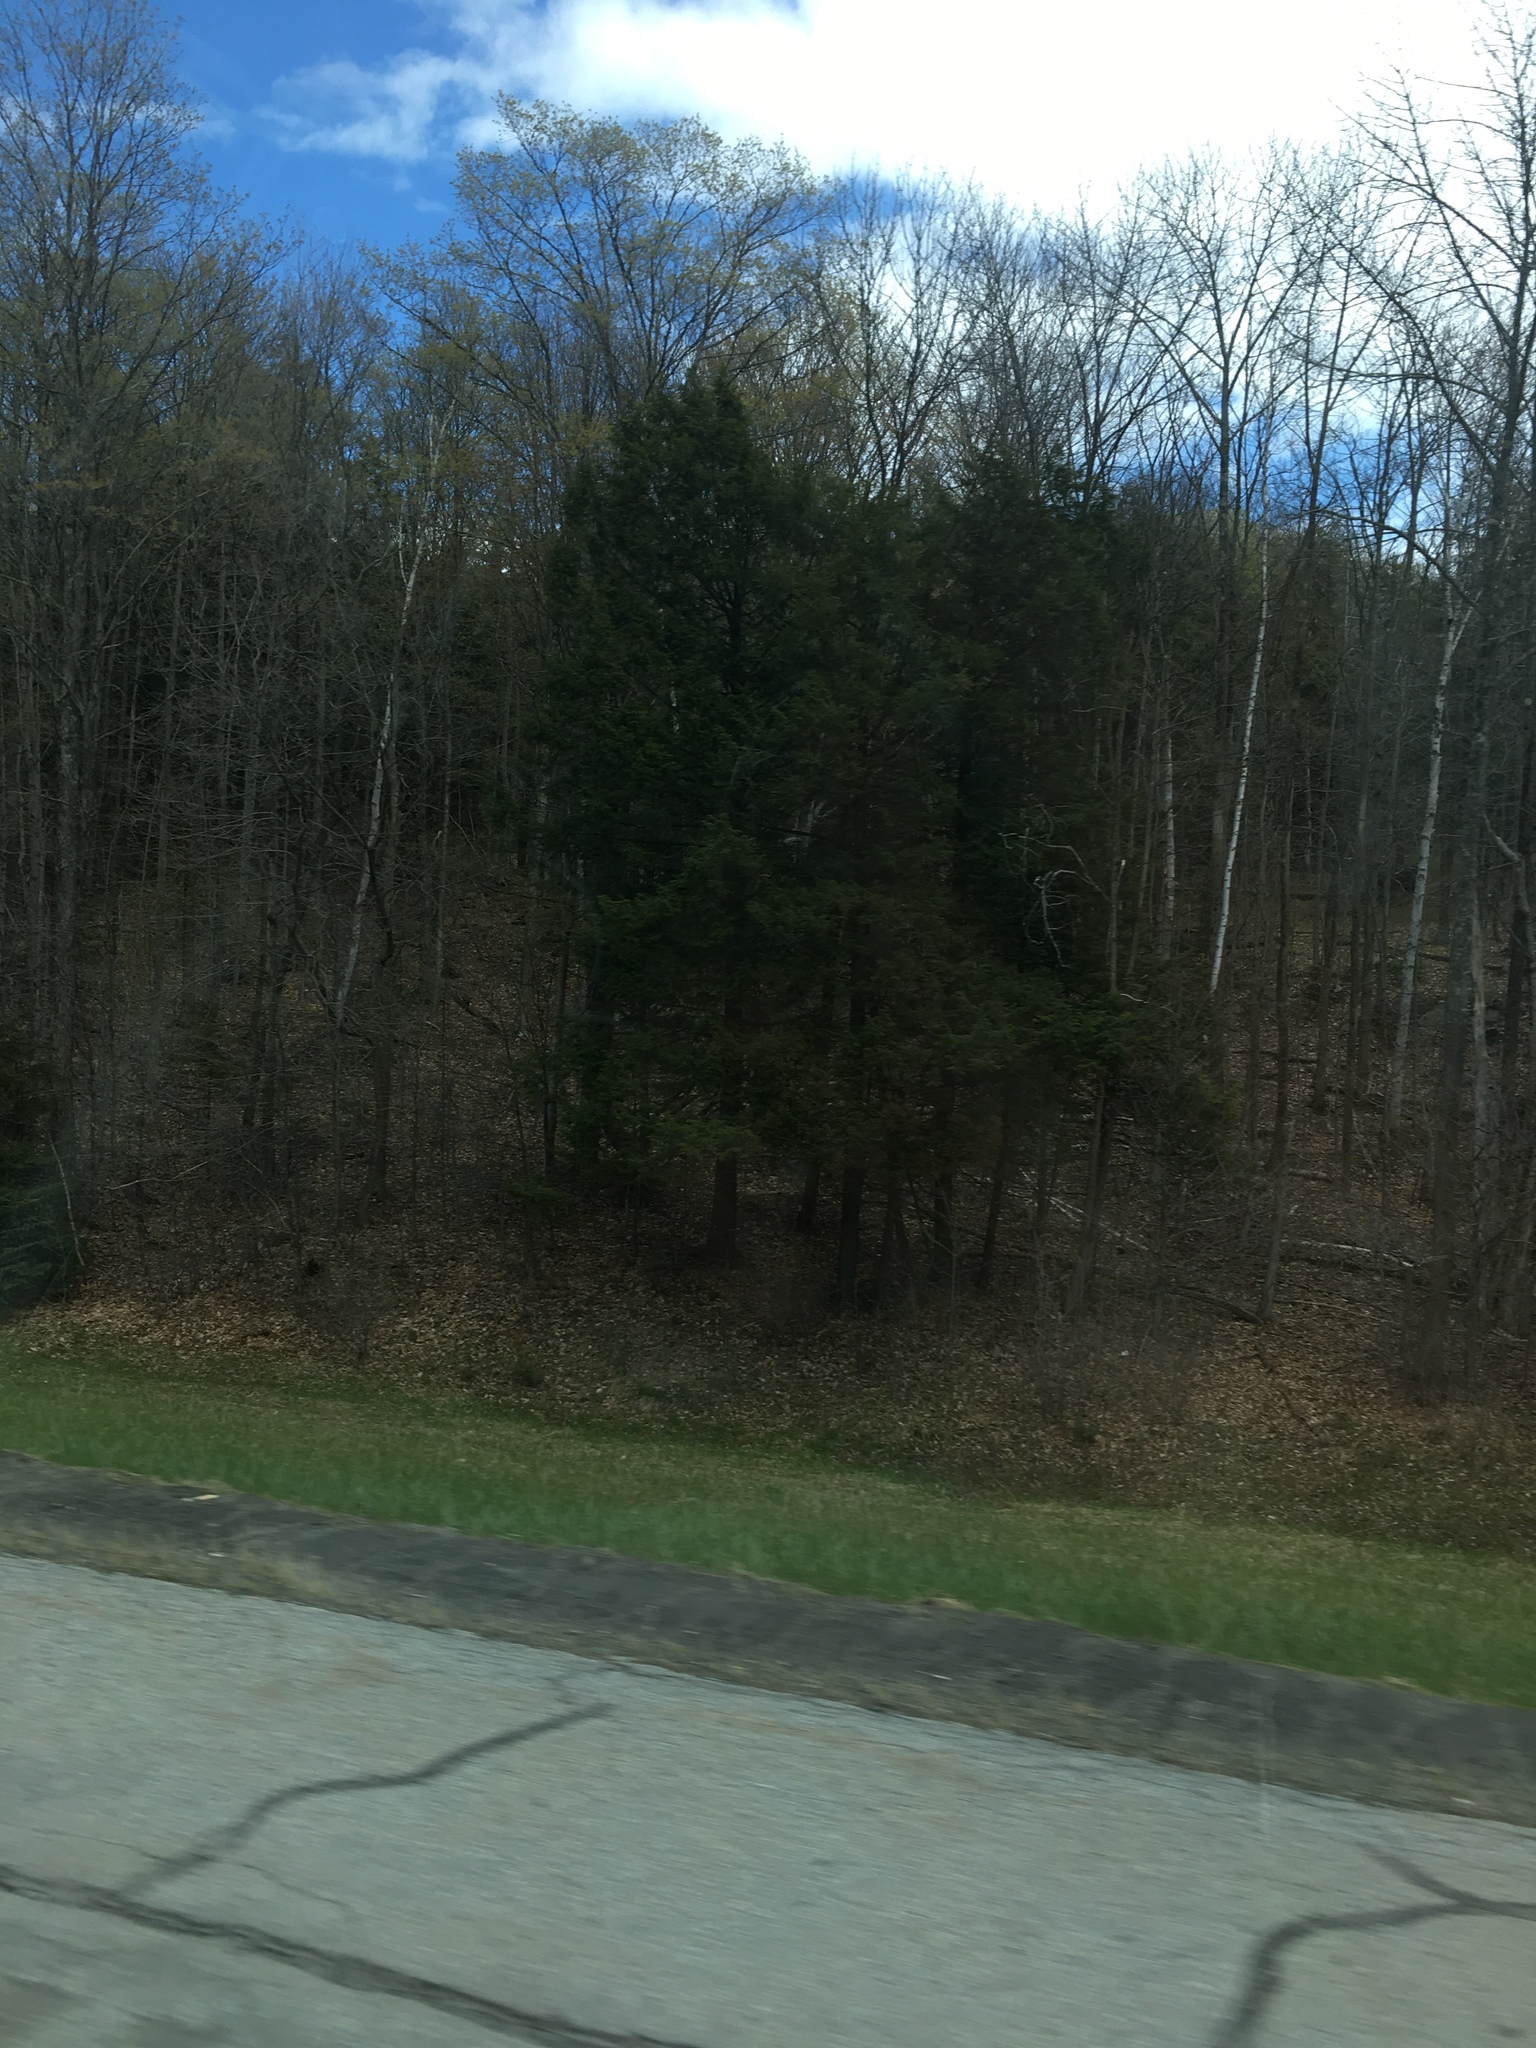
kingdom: Plantae
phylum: Tracheophyta
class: Pinopsida
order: Pinales
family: Pinaceae
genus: Tsuga
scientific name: Tsuga canadensis
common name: Eastern hemlock
